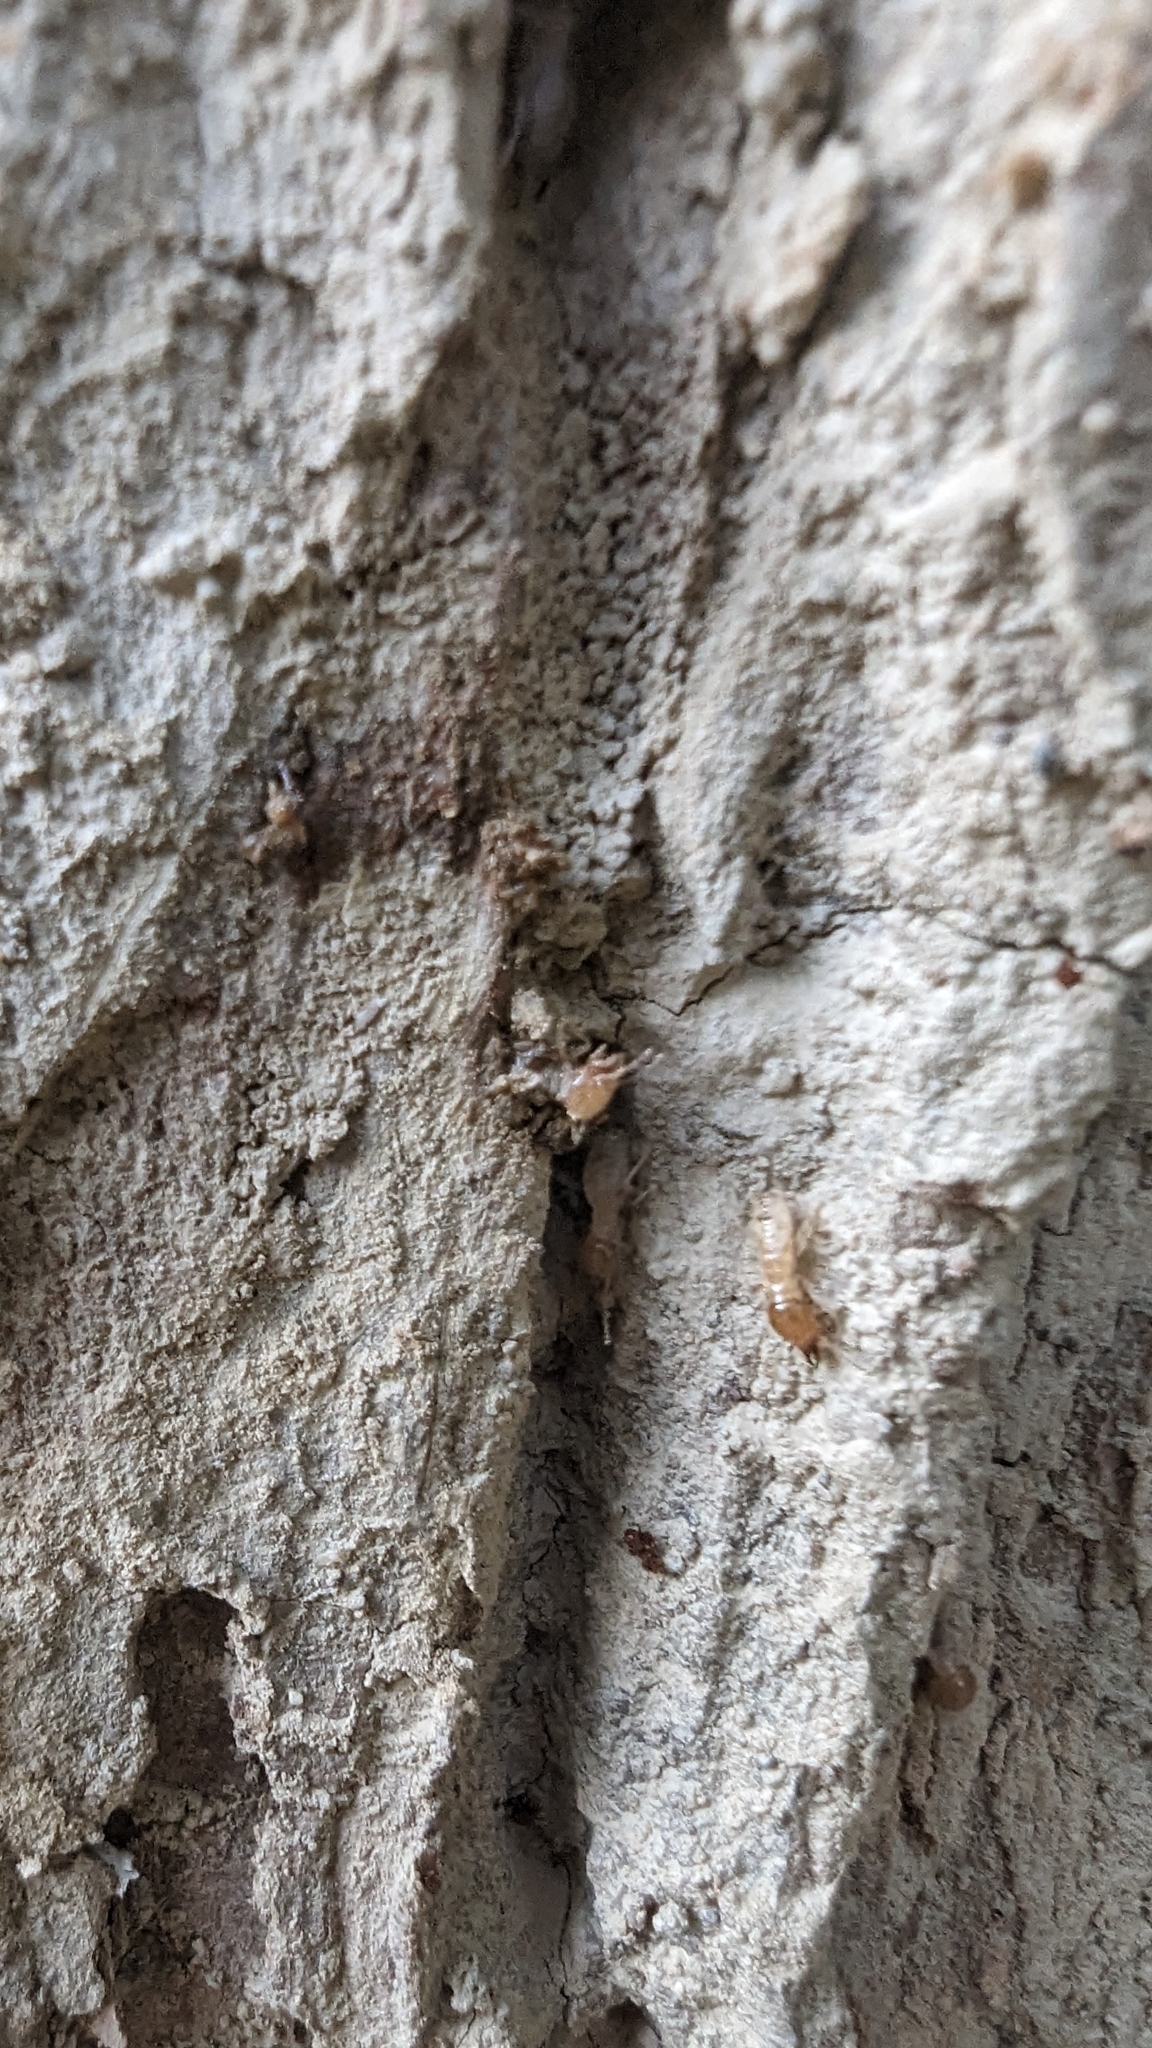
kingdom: Animalia
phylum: Arthropoda
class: Insecta
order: Blattodea
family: Termitidae
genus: Odontotermes
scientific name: Odontotermes formosanus
